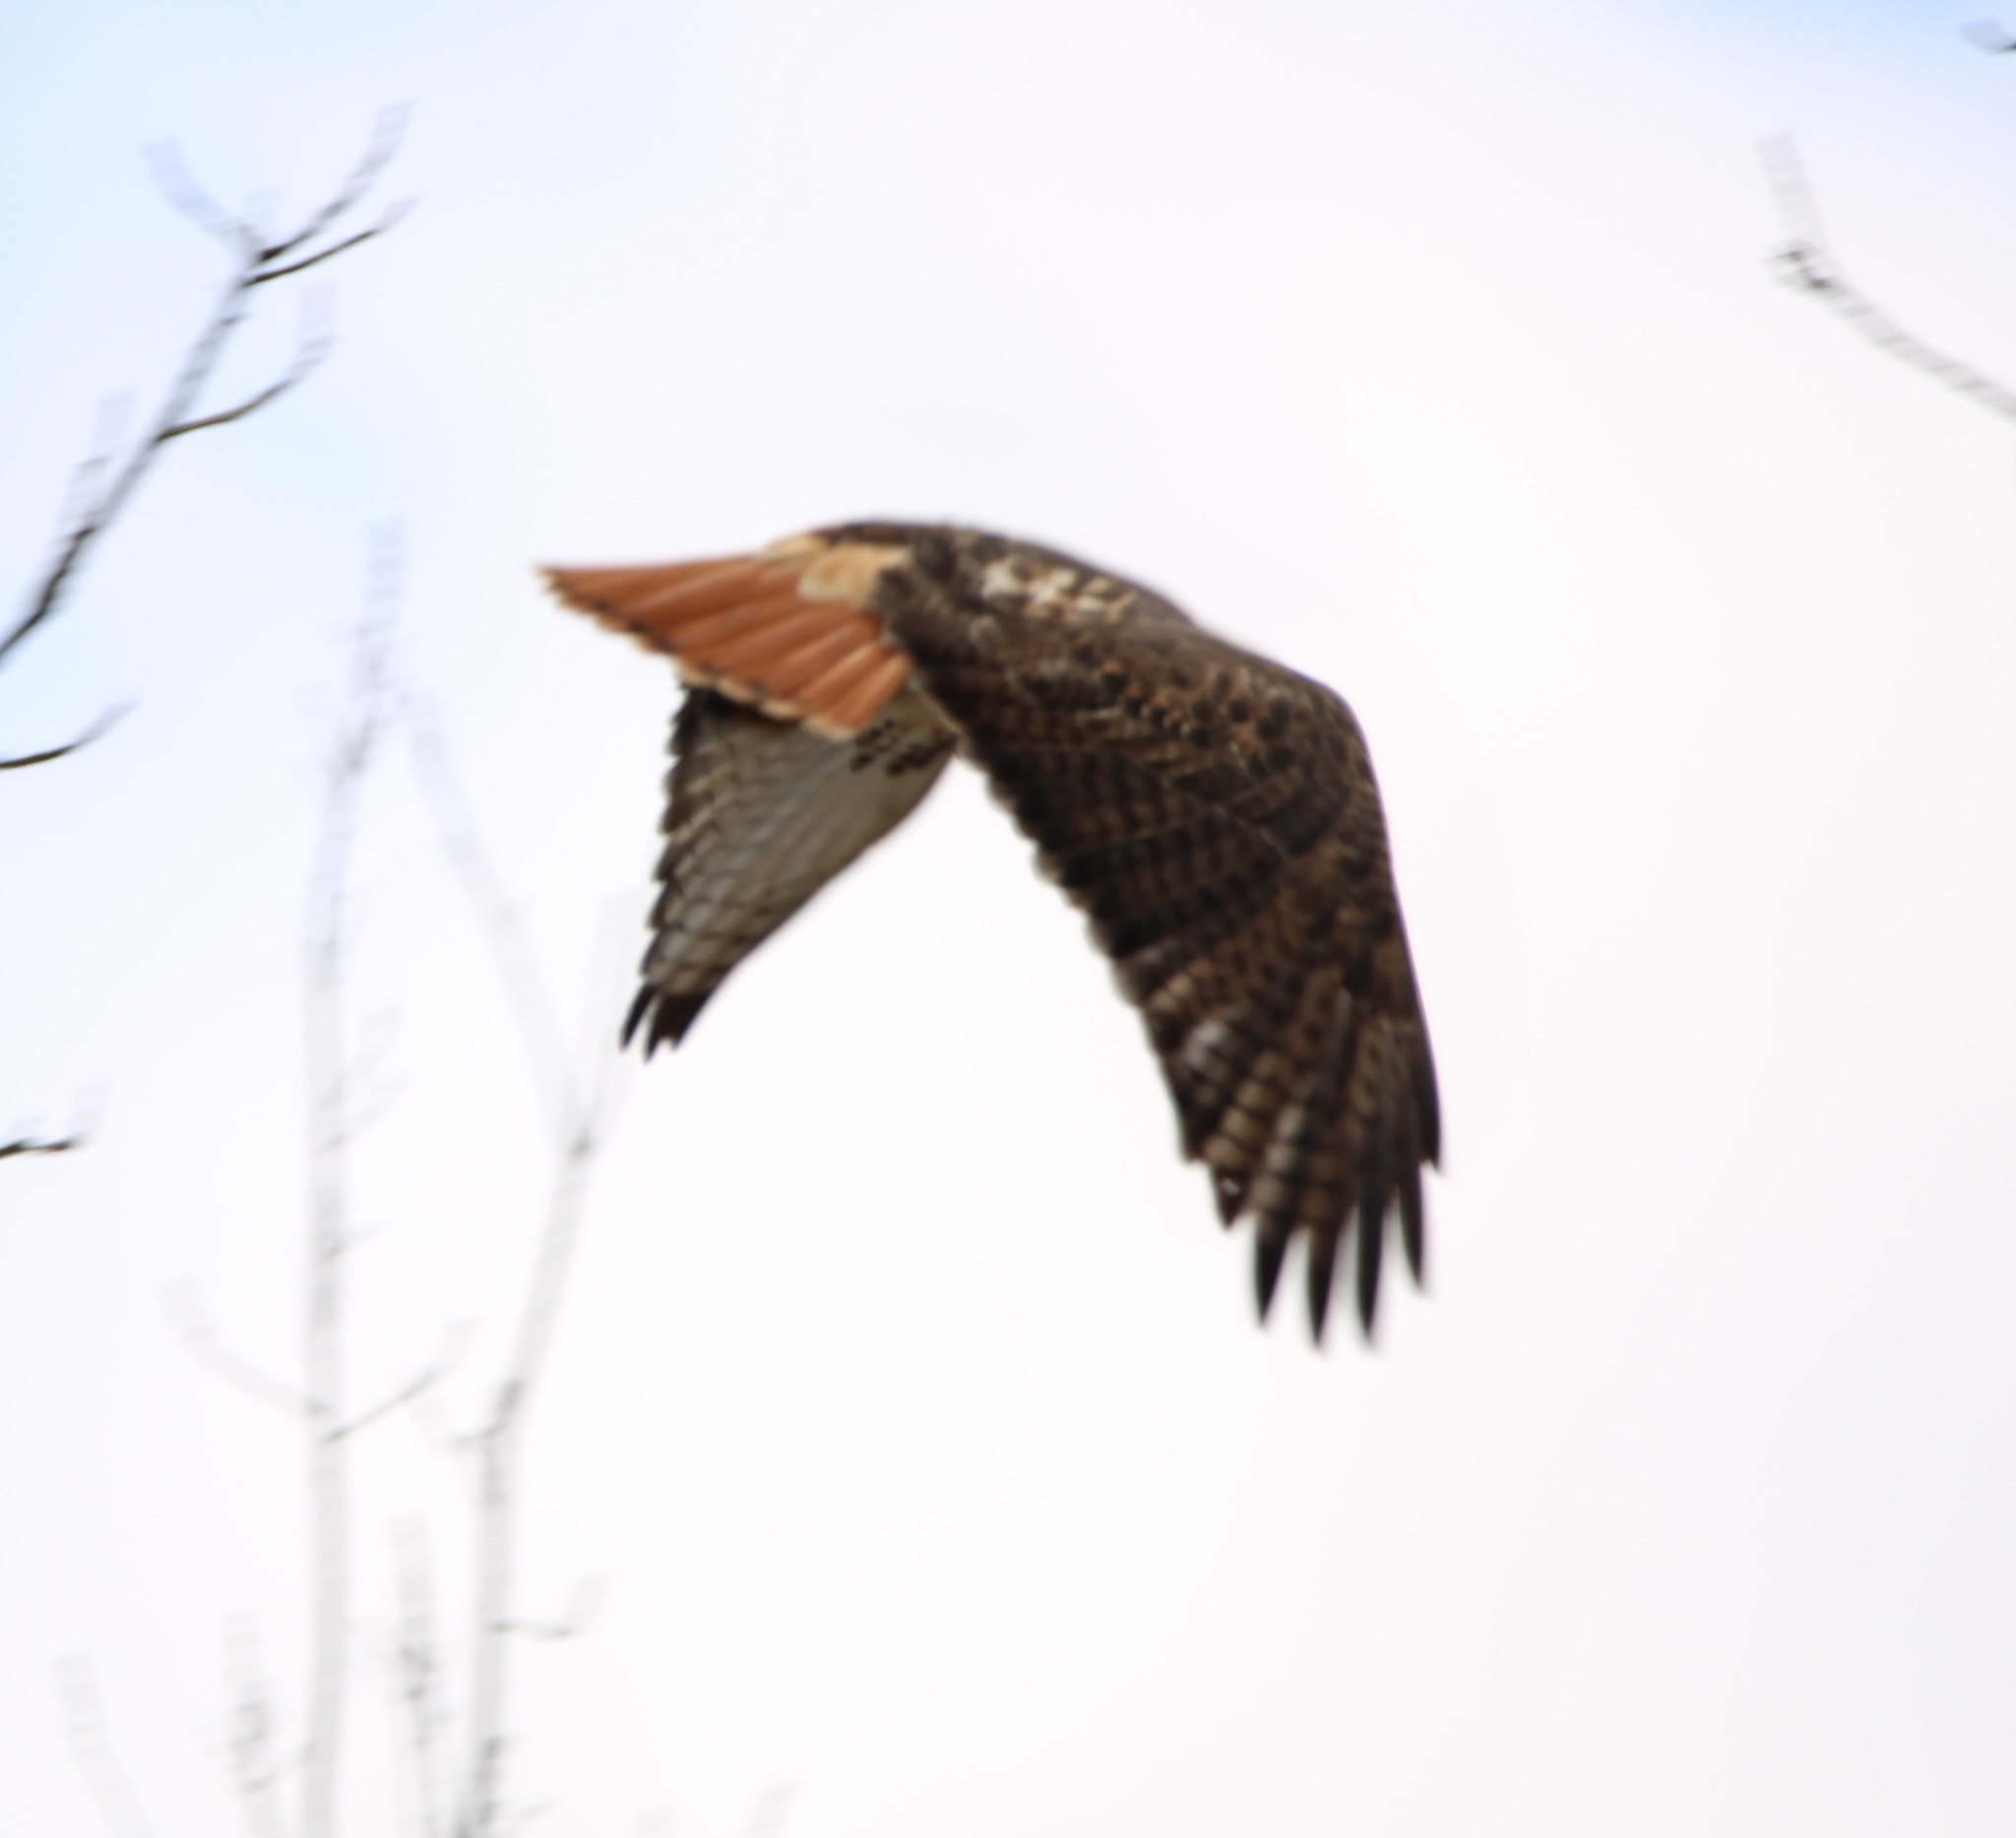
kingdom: Animalia
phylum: Chordata
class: Aves
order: Accipitriformes
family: Accipitridae
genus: Buteo
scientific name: Buteo jamaicensis
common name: Red-tailed hawk
